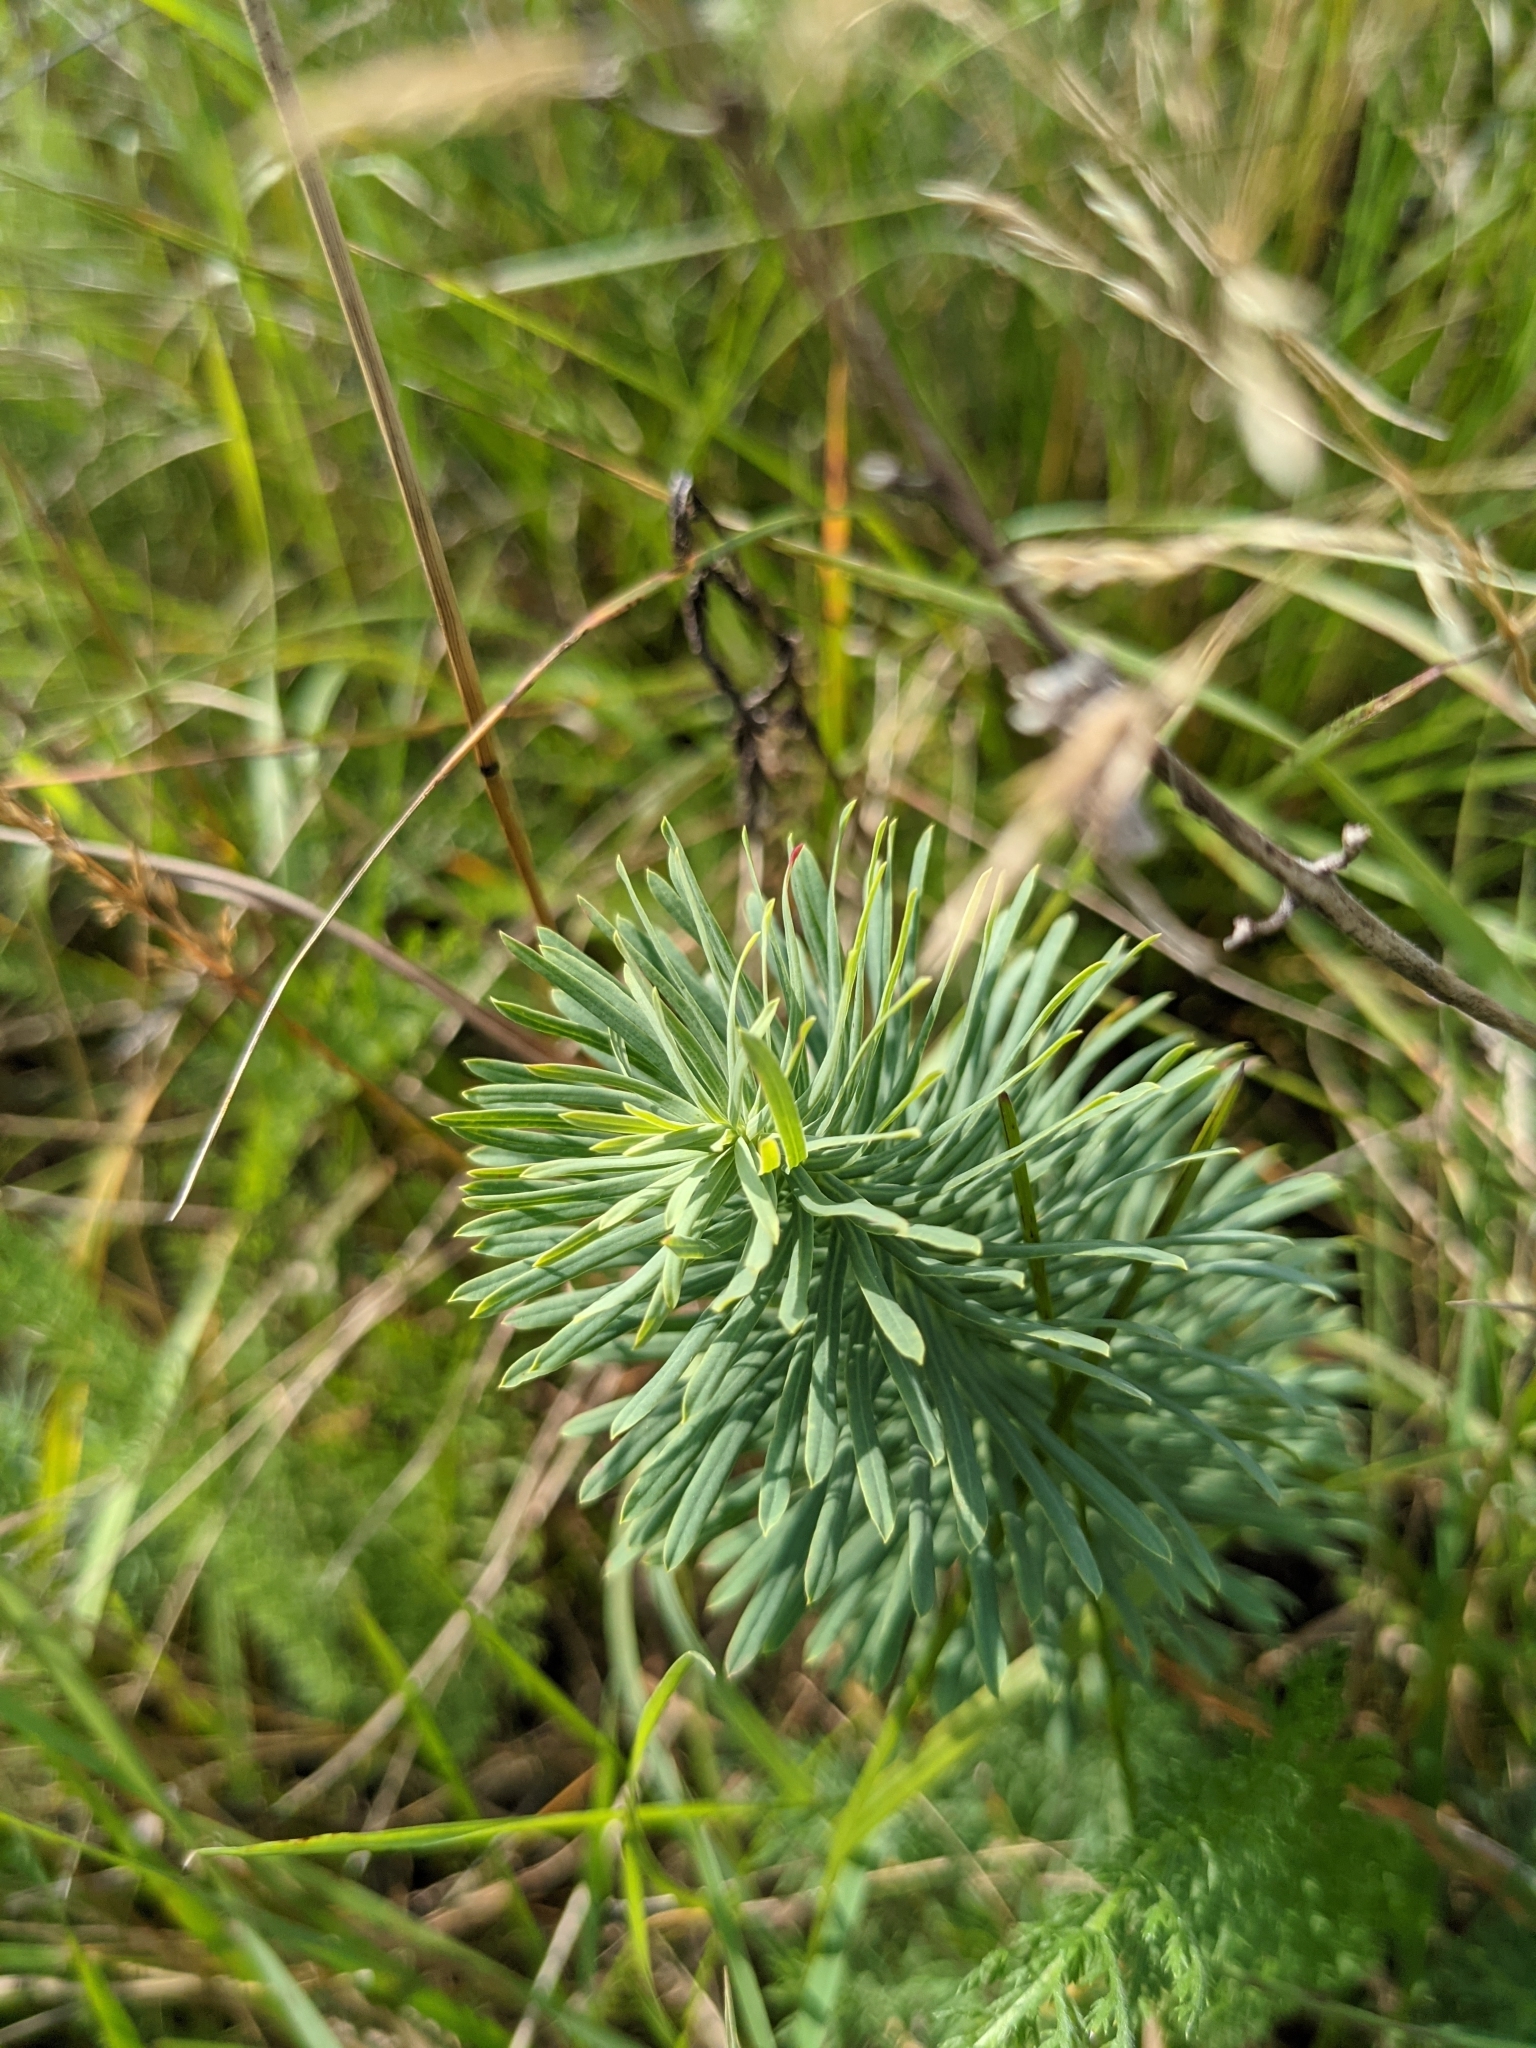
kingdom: Plantae
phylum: Tracheophyta
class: Magnoliopsida
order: Malpighiales
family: Euphorbiaceae
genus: Euphorbia
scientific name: Euphorbia cyparissias
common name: Cypress spurge
